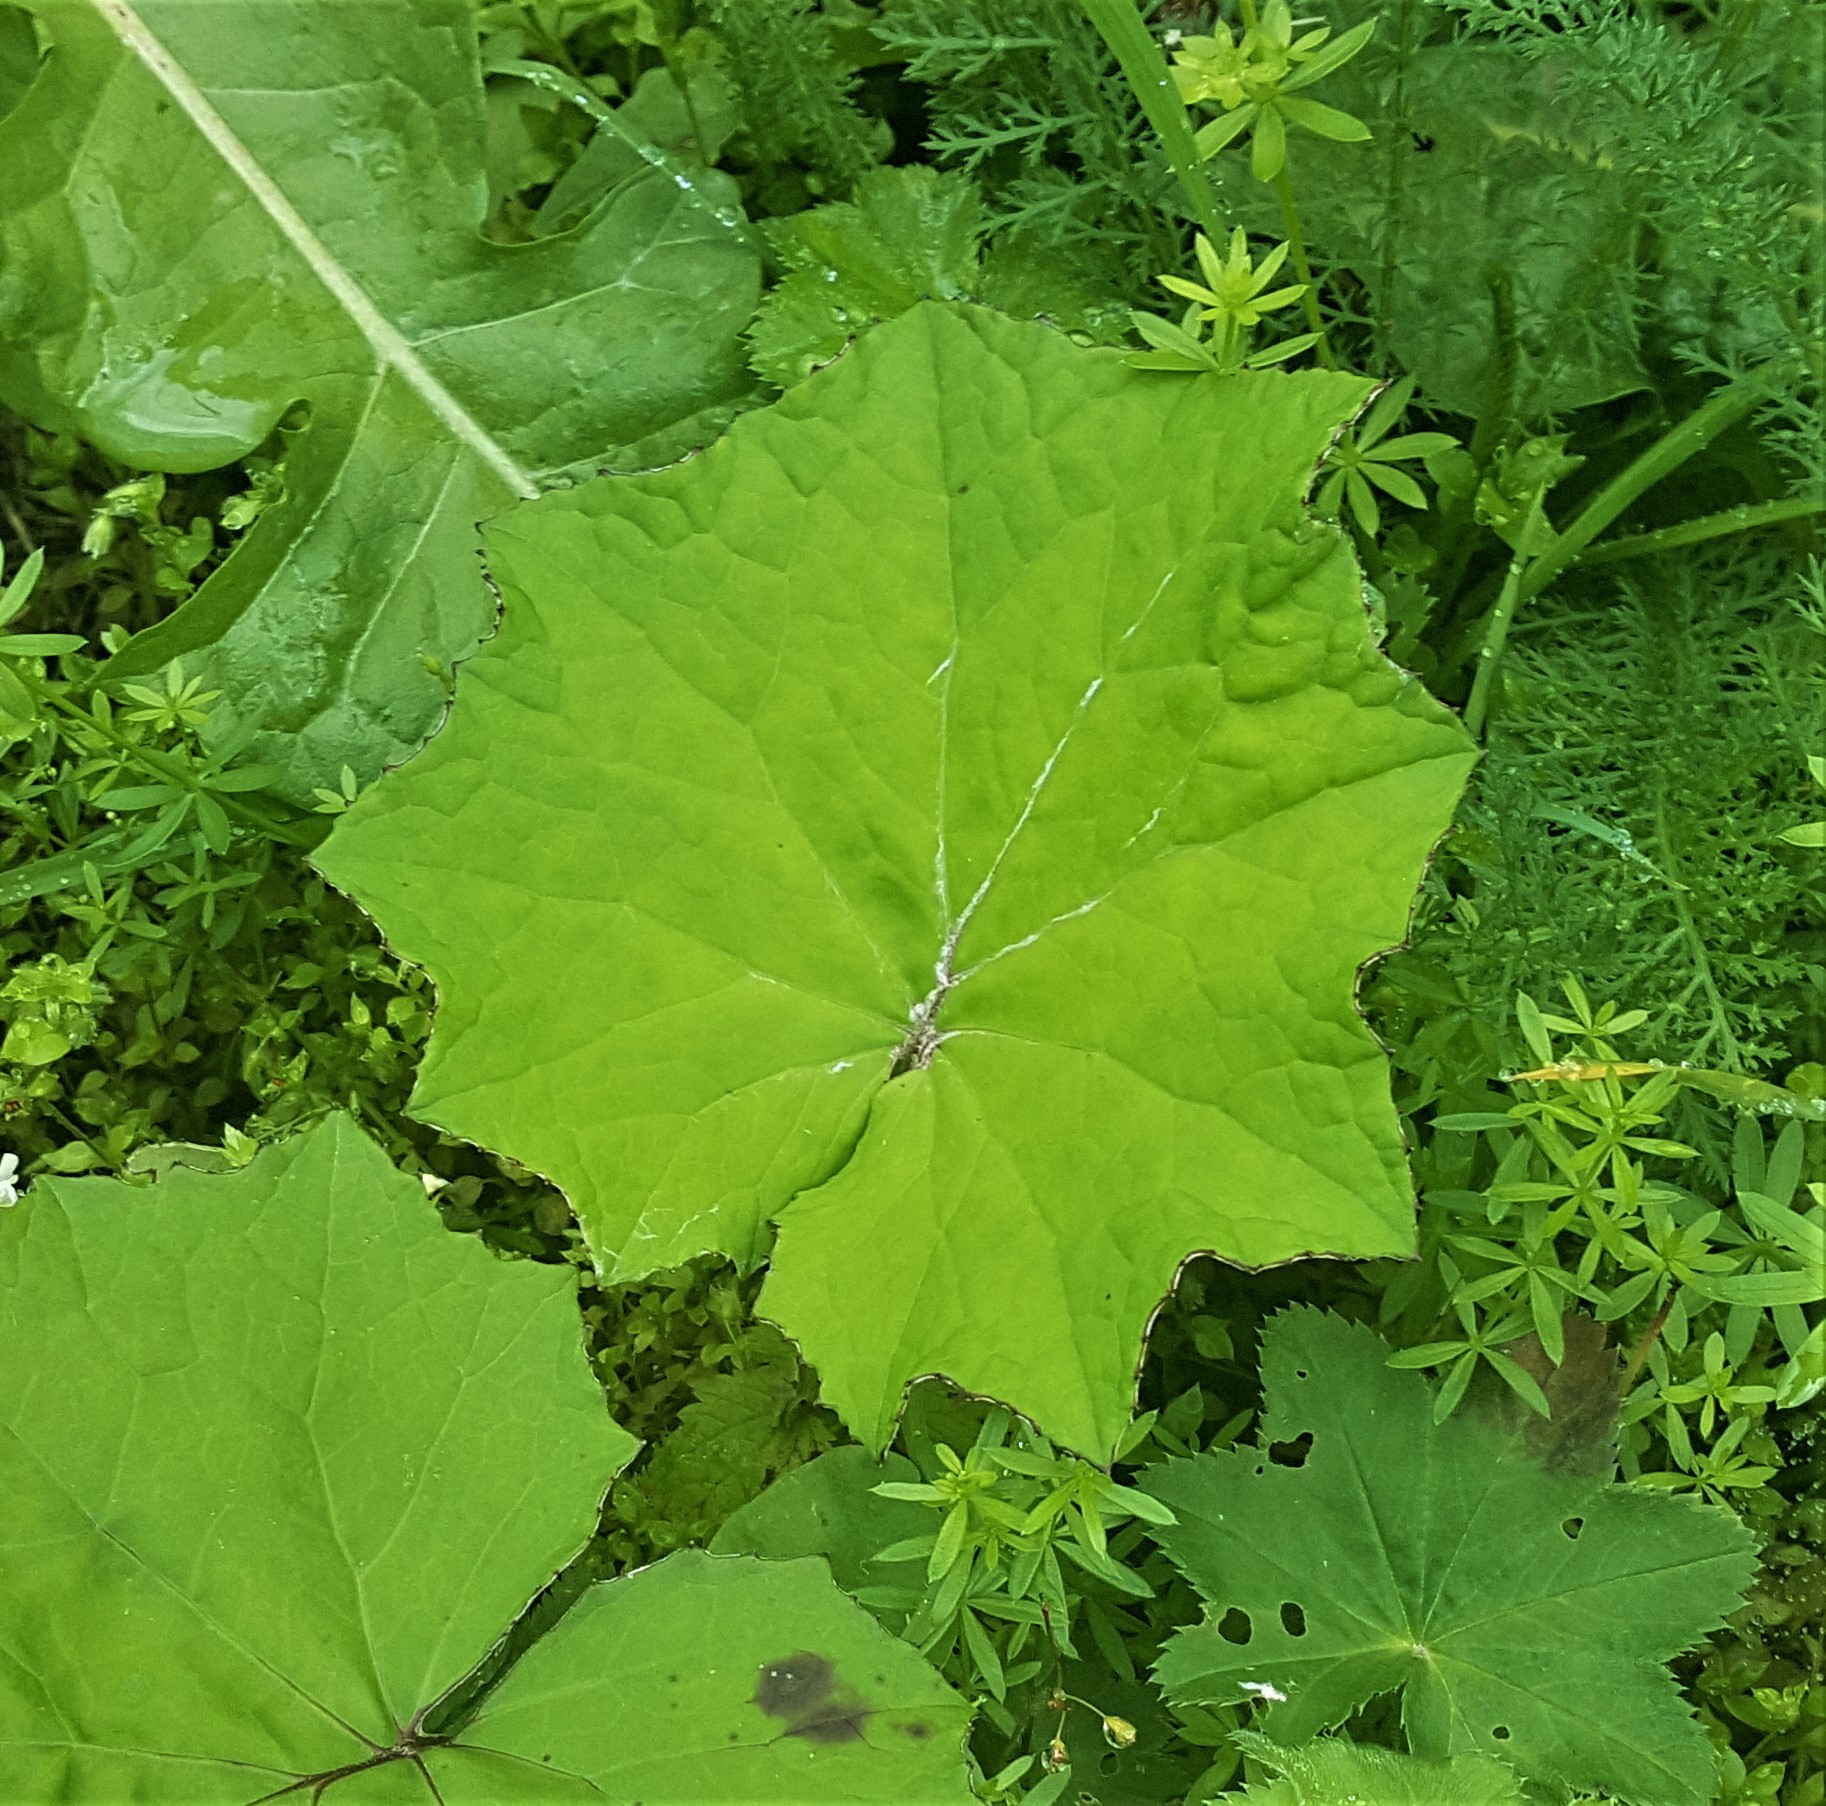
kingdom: Plantae
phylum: Tracheophyta
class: Magnoliopsida
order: Asterales
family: Asteraceae
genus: Tussilago
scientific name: Tussilago farfara
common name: Coltsfoot
